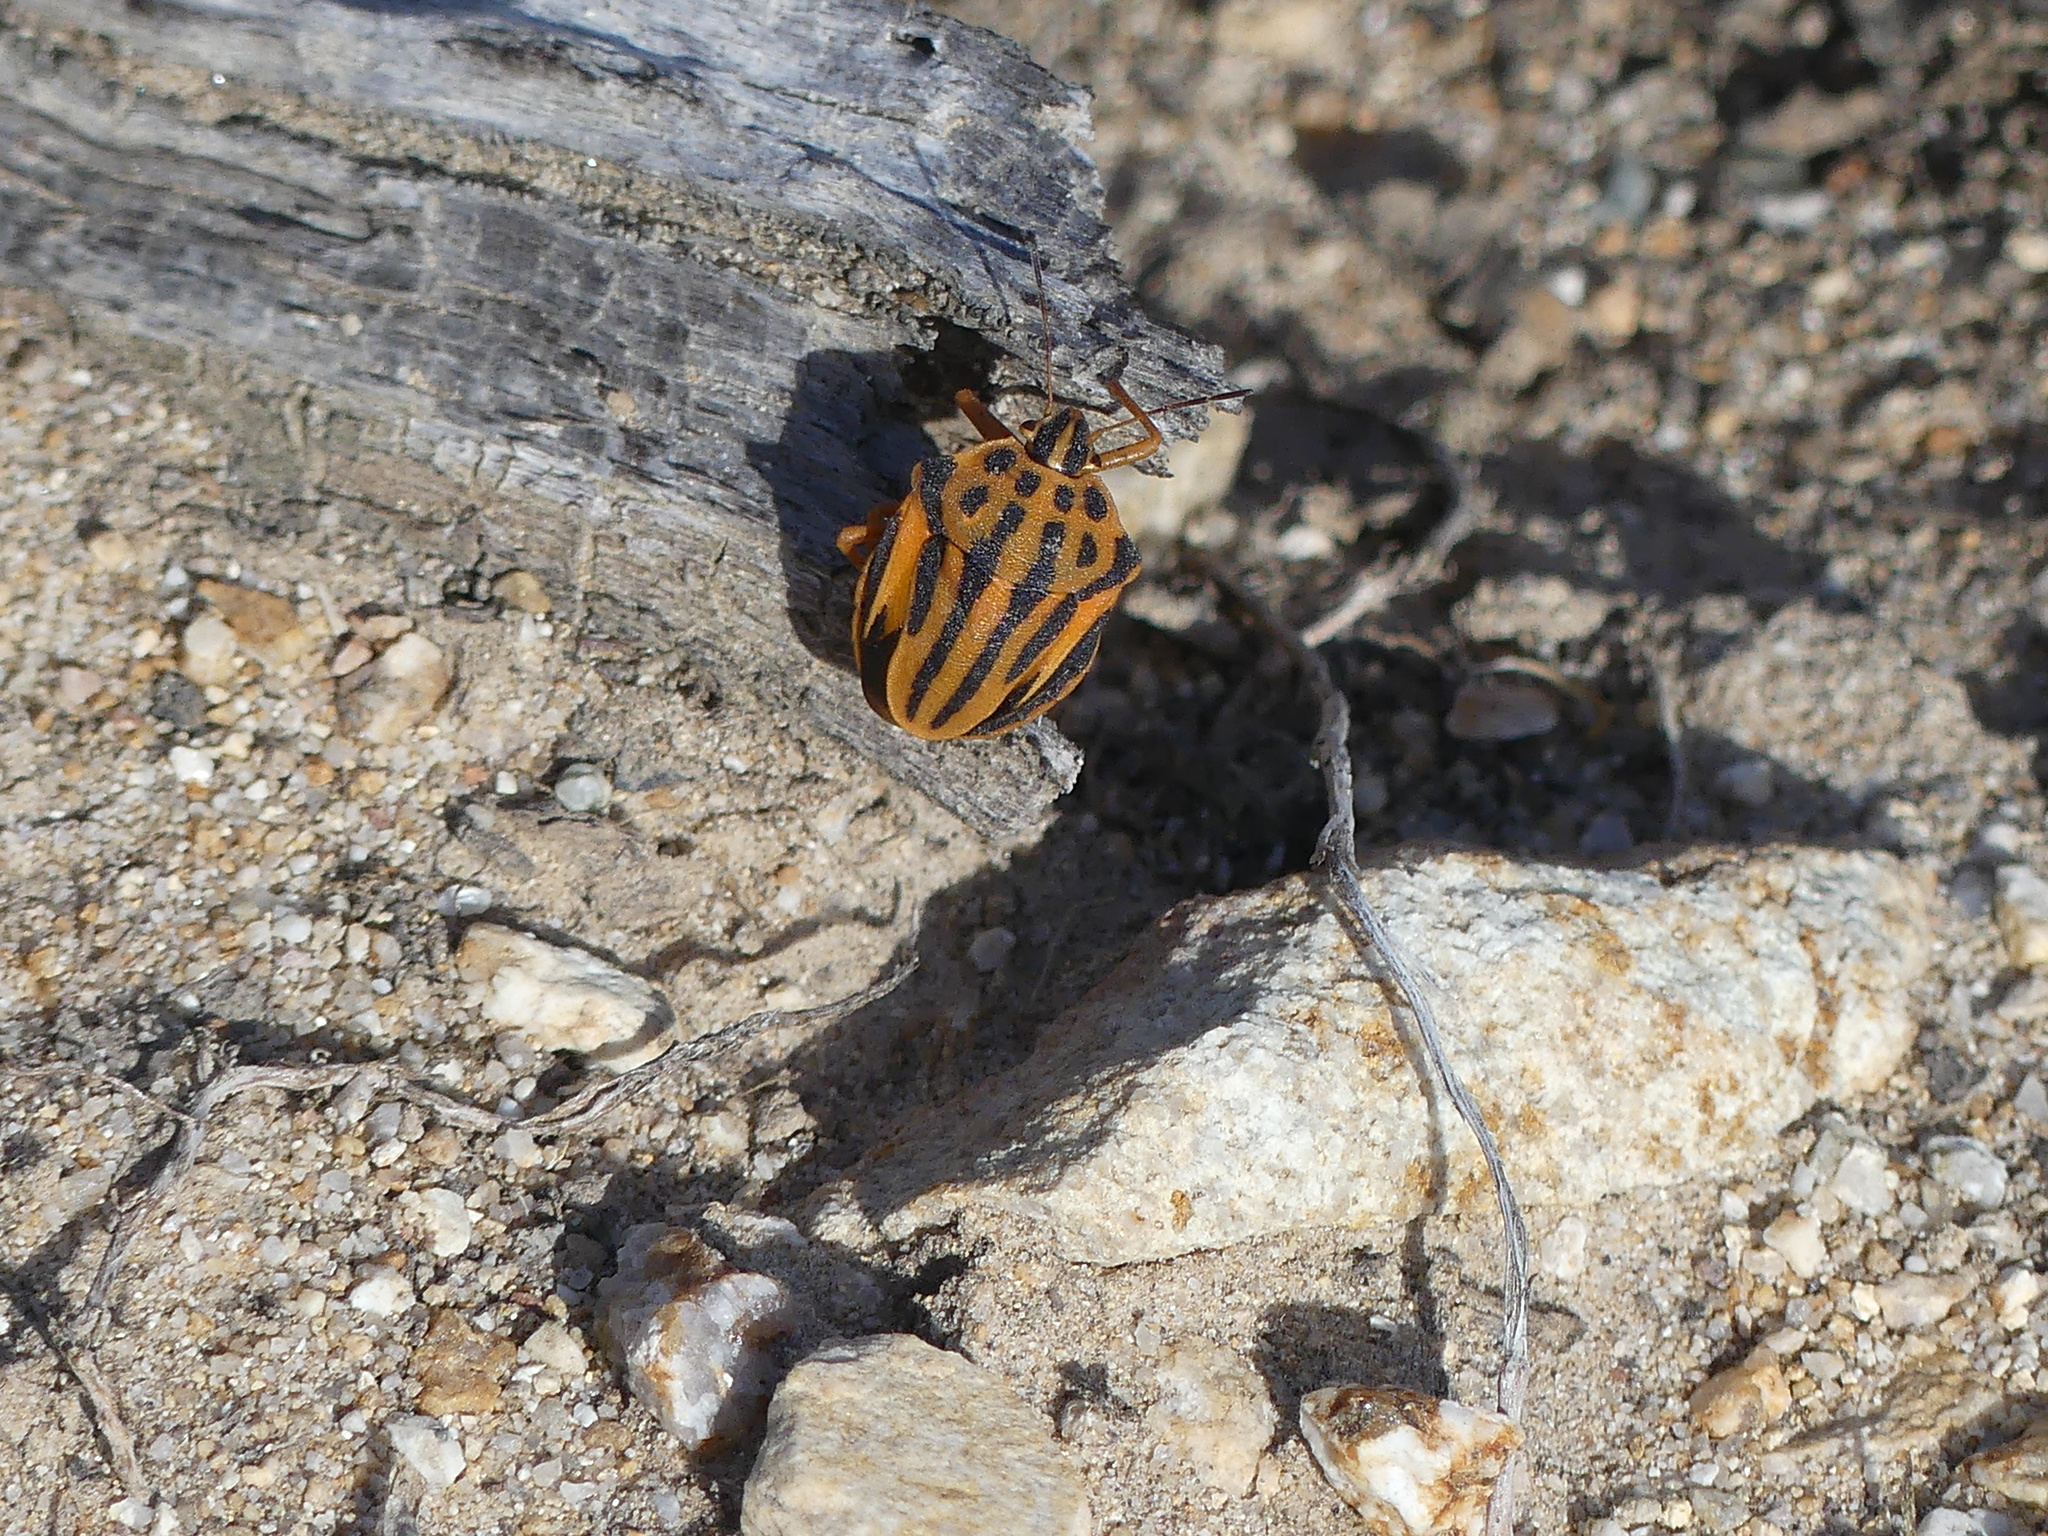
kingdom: Animalia
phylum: Arthropoda
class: Insecta
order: Hemiptera
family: Pentatomidae
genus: Graphosoma
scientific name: Graphosoma semipunctatum
